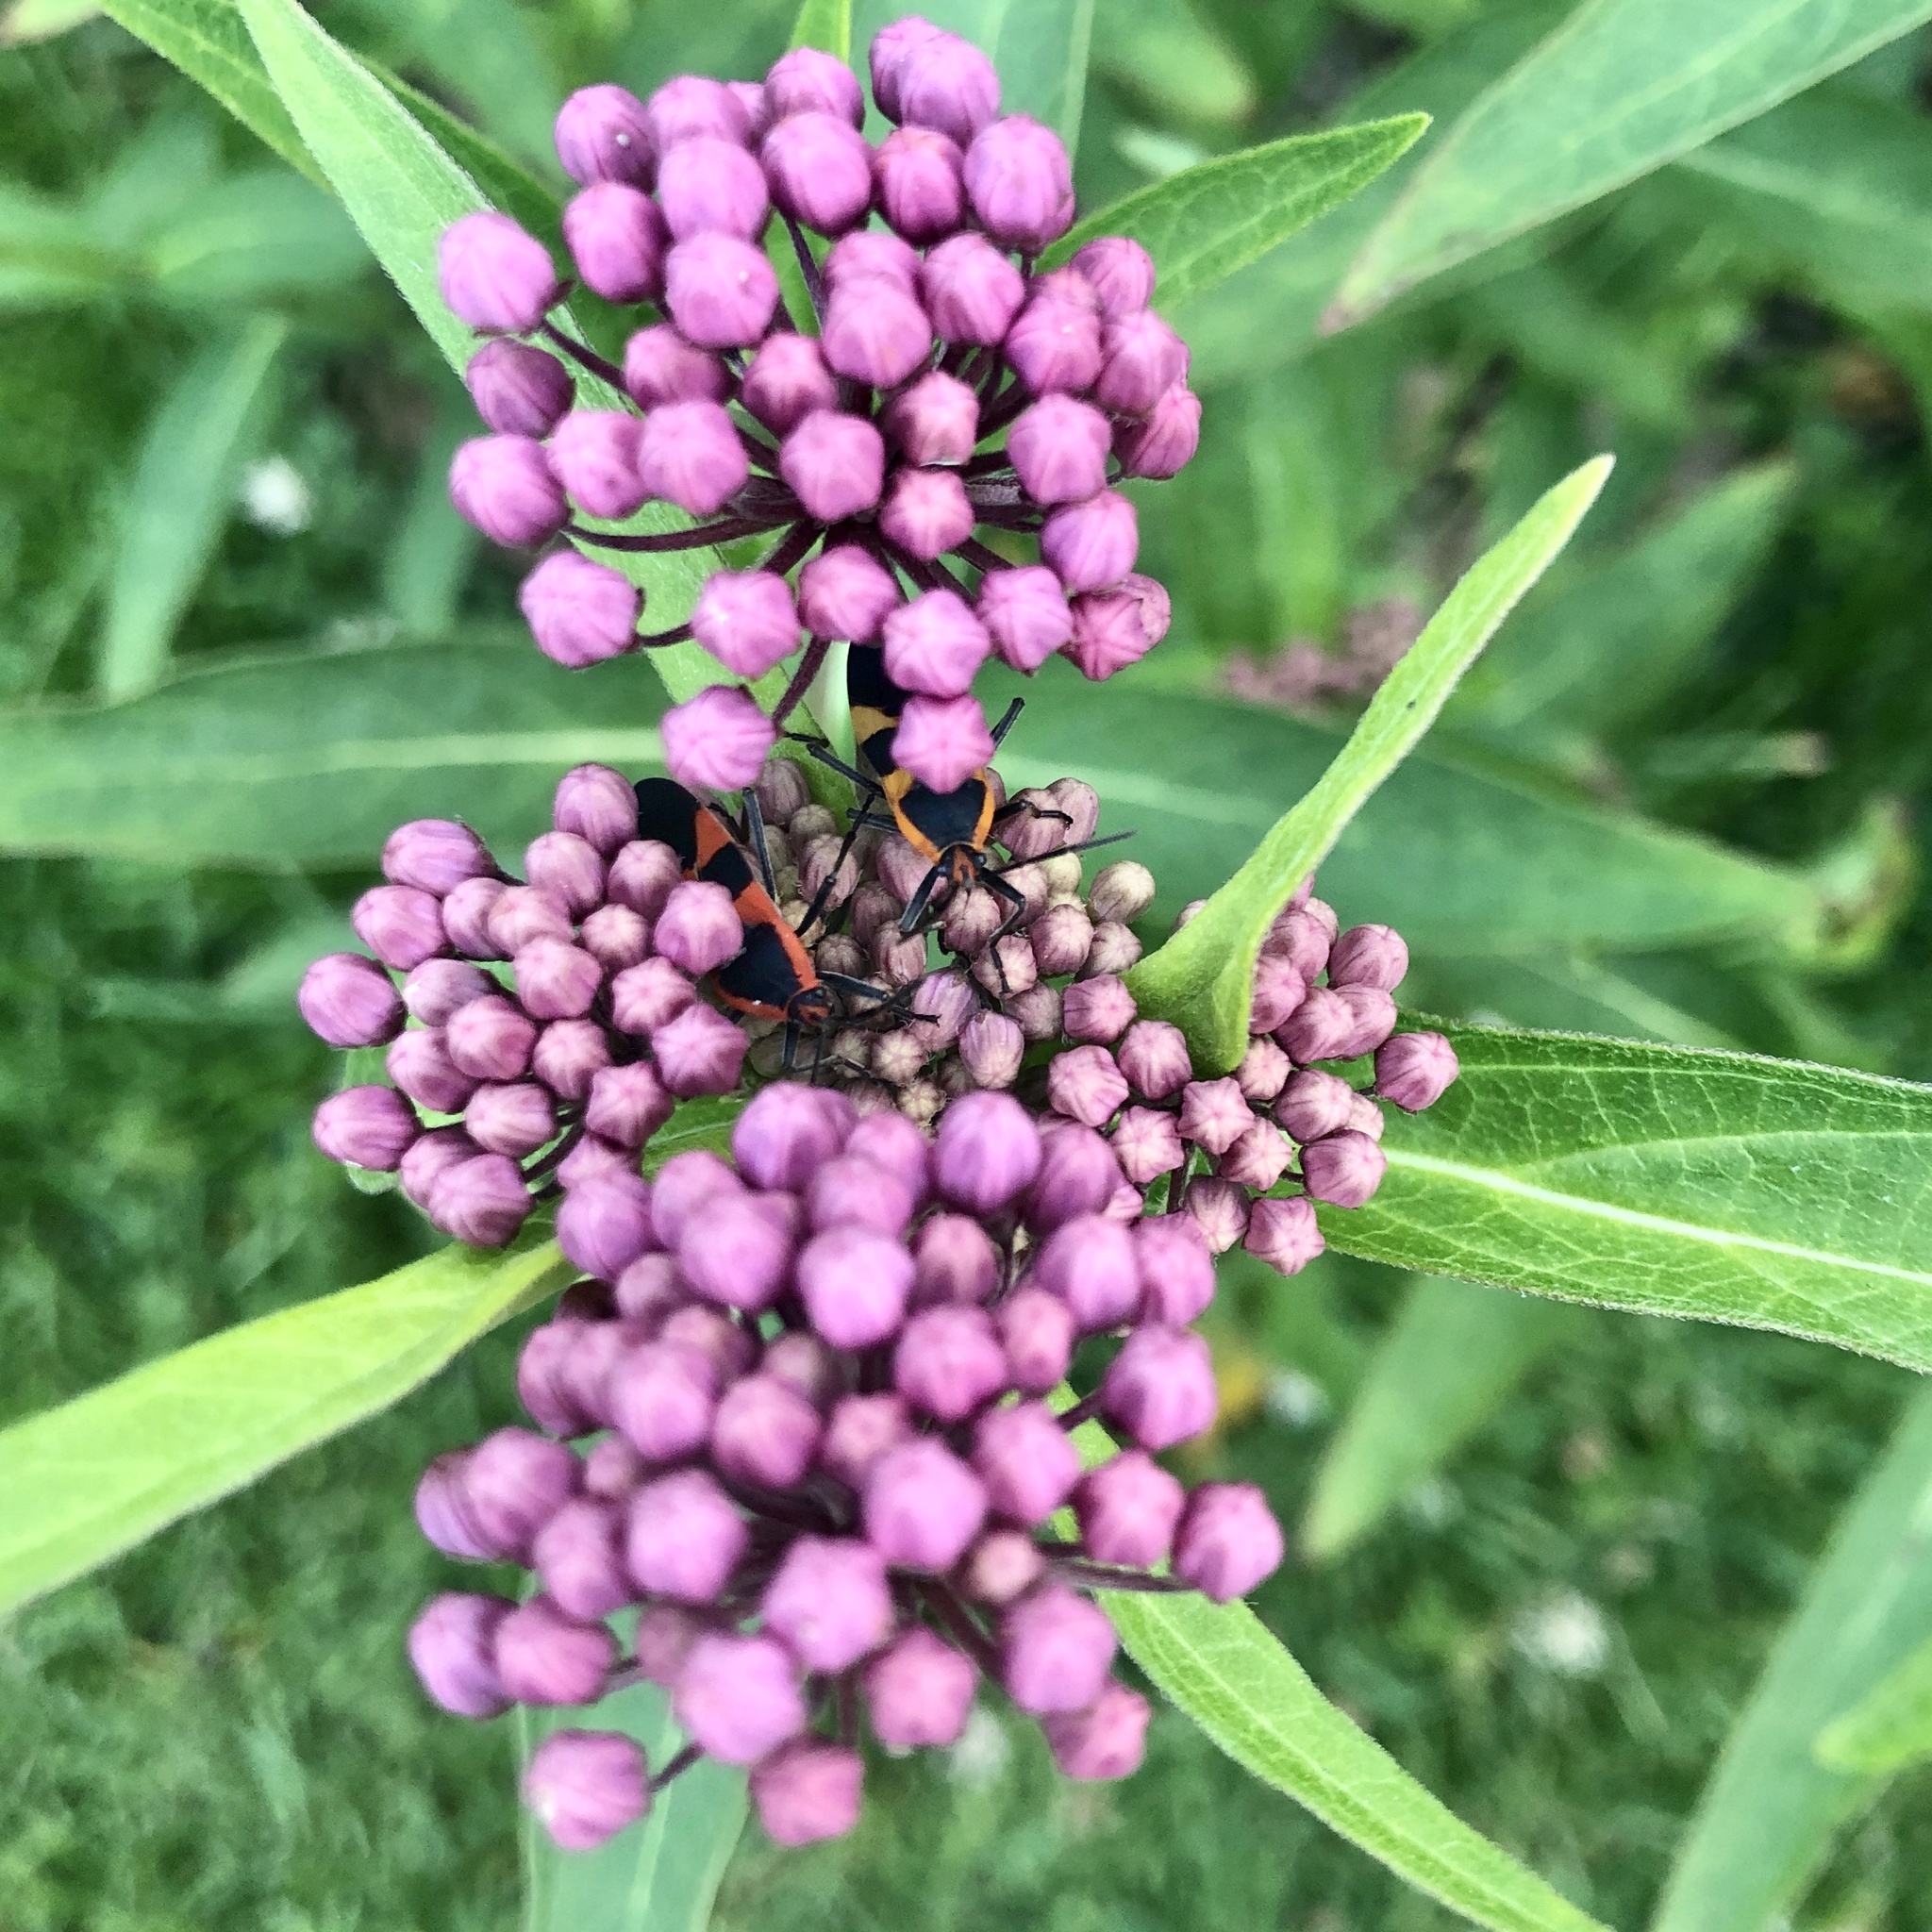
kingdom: Animalia
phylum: Arthropoda
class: Insecta
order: Hemiptera
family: Lygaeidae
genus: Oncopeltus
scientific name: Oncopeltus fasciatus
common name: Large milkweed bug
